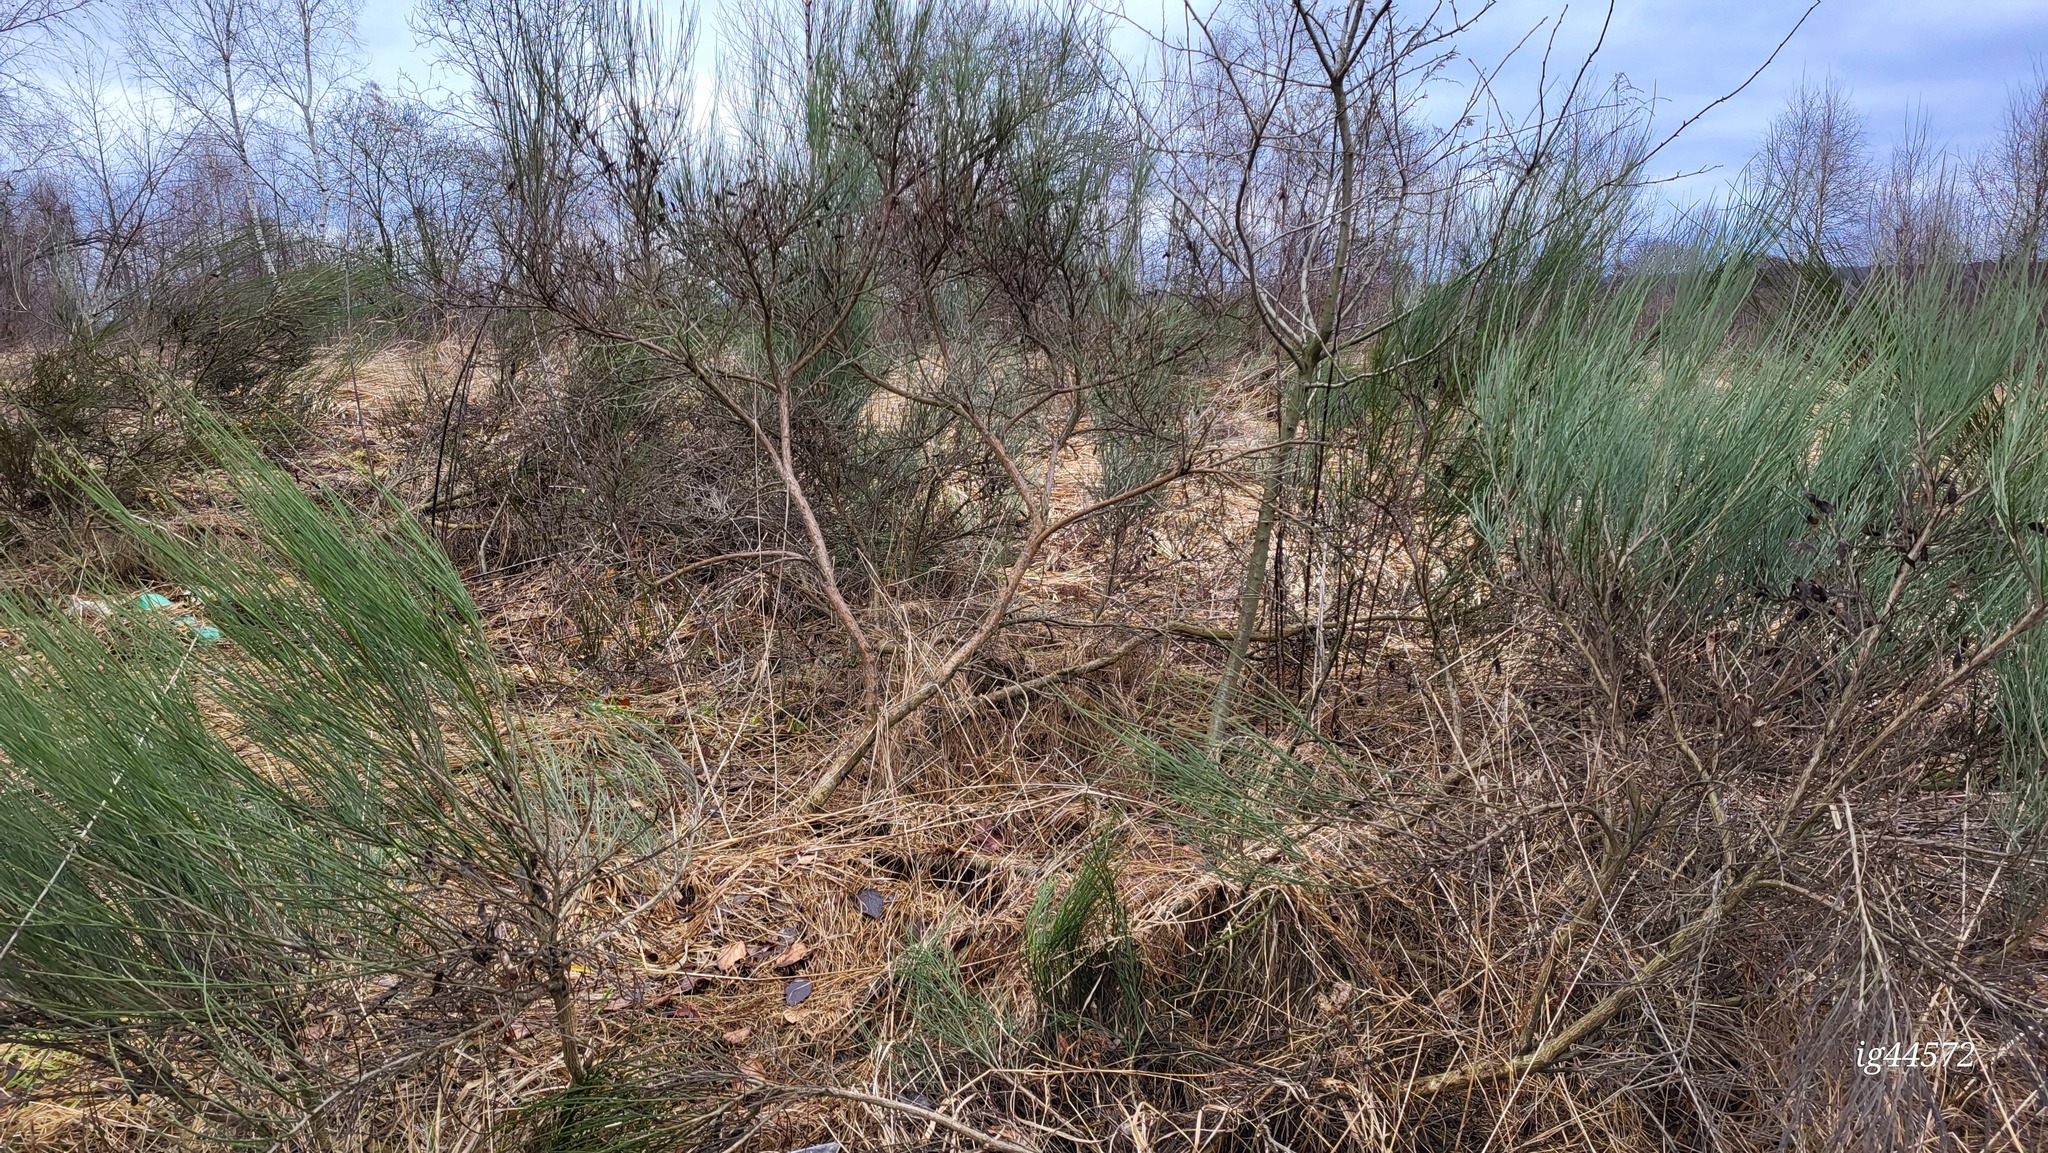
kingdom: Plantae
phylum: Tracheophyta
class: Magnoliopsida
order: Fabales
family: Fabaceae
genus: Cytisus
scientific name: Cytisus scoparius
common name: Scotch broom
